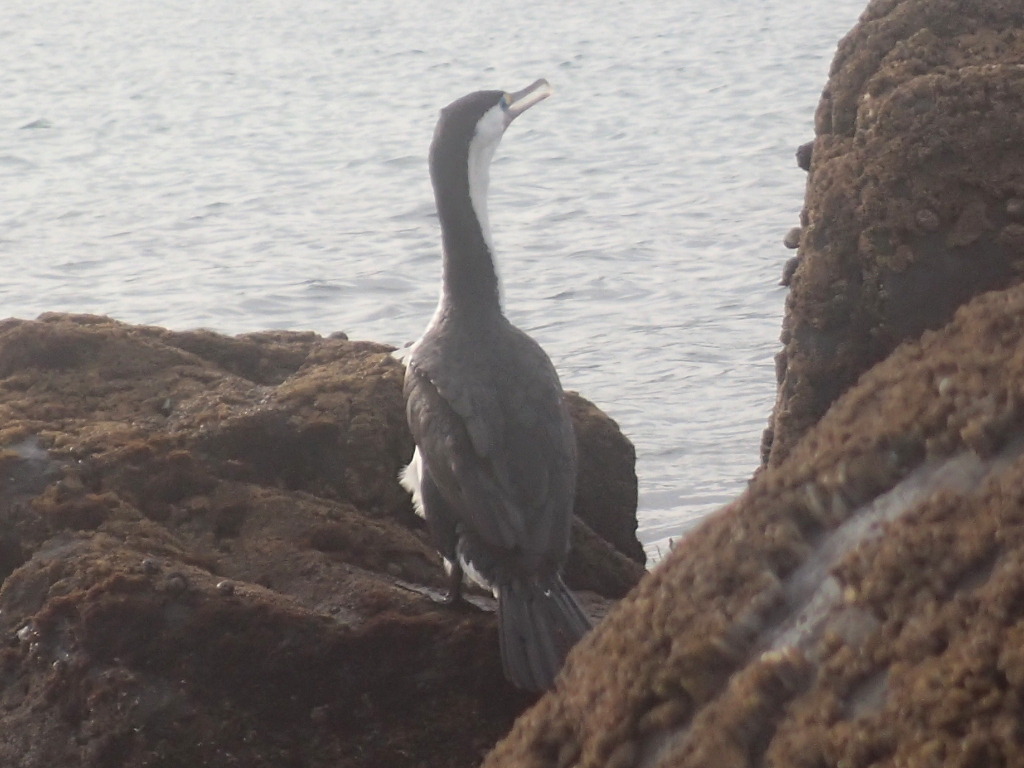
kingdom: Animalia
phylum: Chordata
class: Aves
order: Suliformes
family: Phalacrocoracidae
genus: Phalacrocorax
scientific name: Phalacrocorax varius
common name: Pied cormorant
